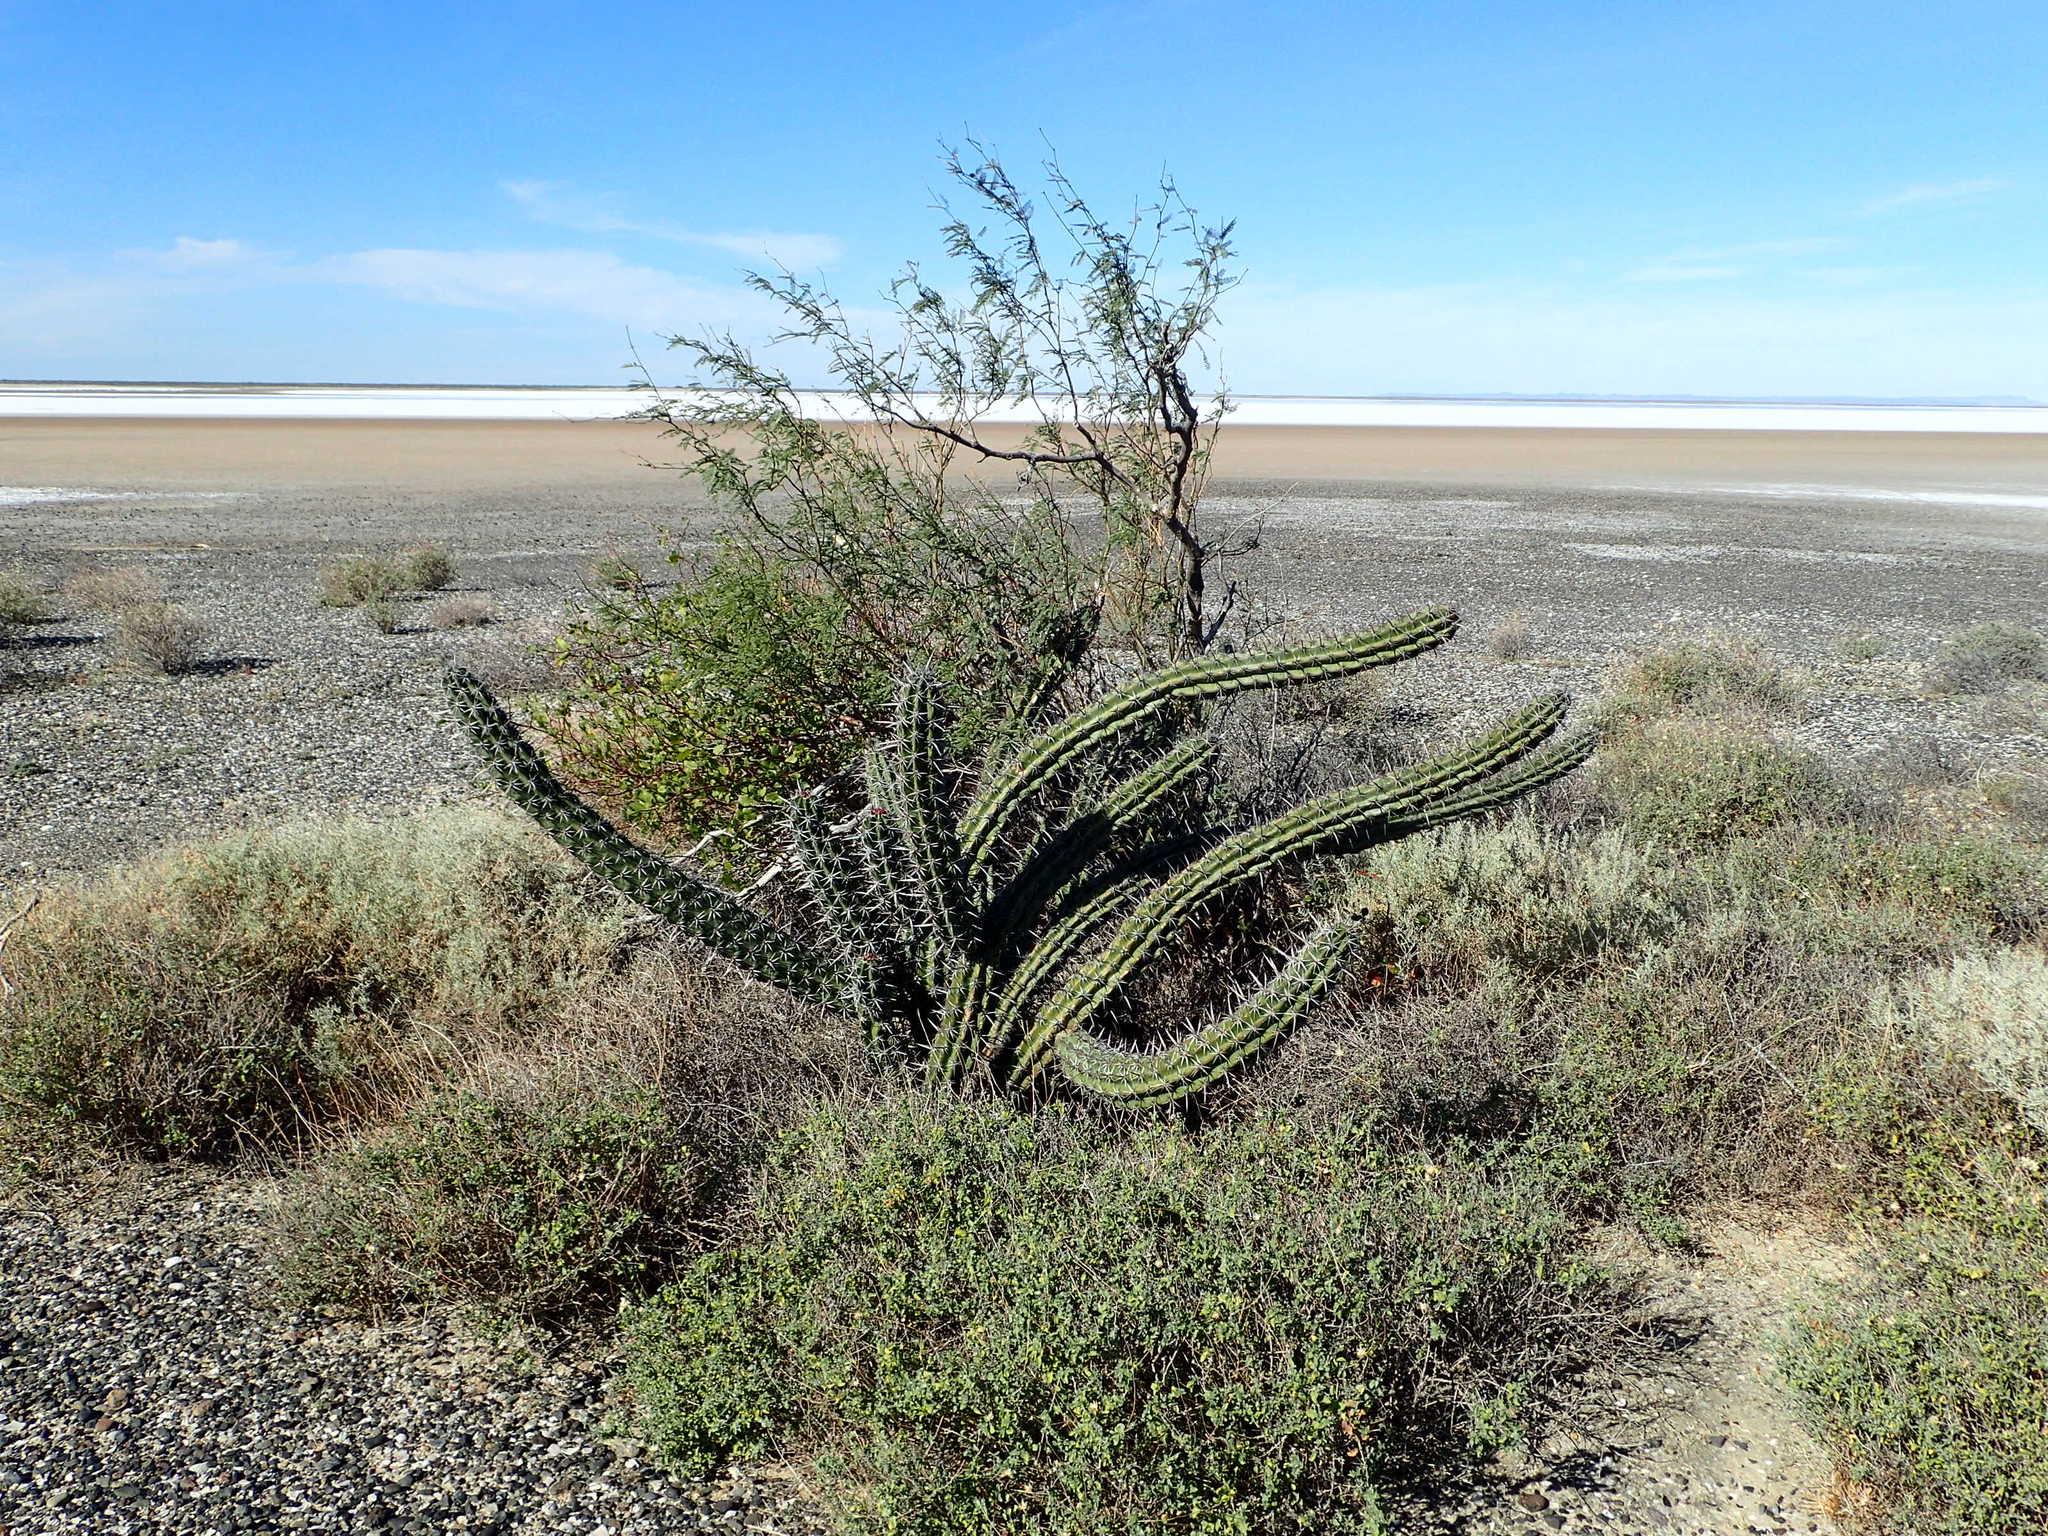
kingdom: Plantae
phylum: Tracheophyta
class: Magnoliopsida
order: Caryophyllales
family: Cactaceae
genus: Stenocereus
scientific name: Stenocereus gummosus
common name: Dagger cactus
